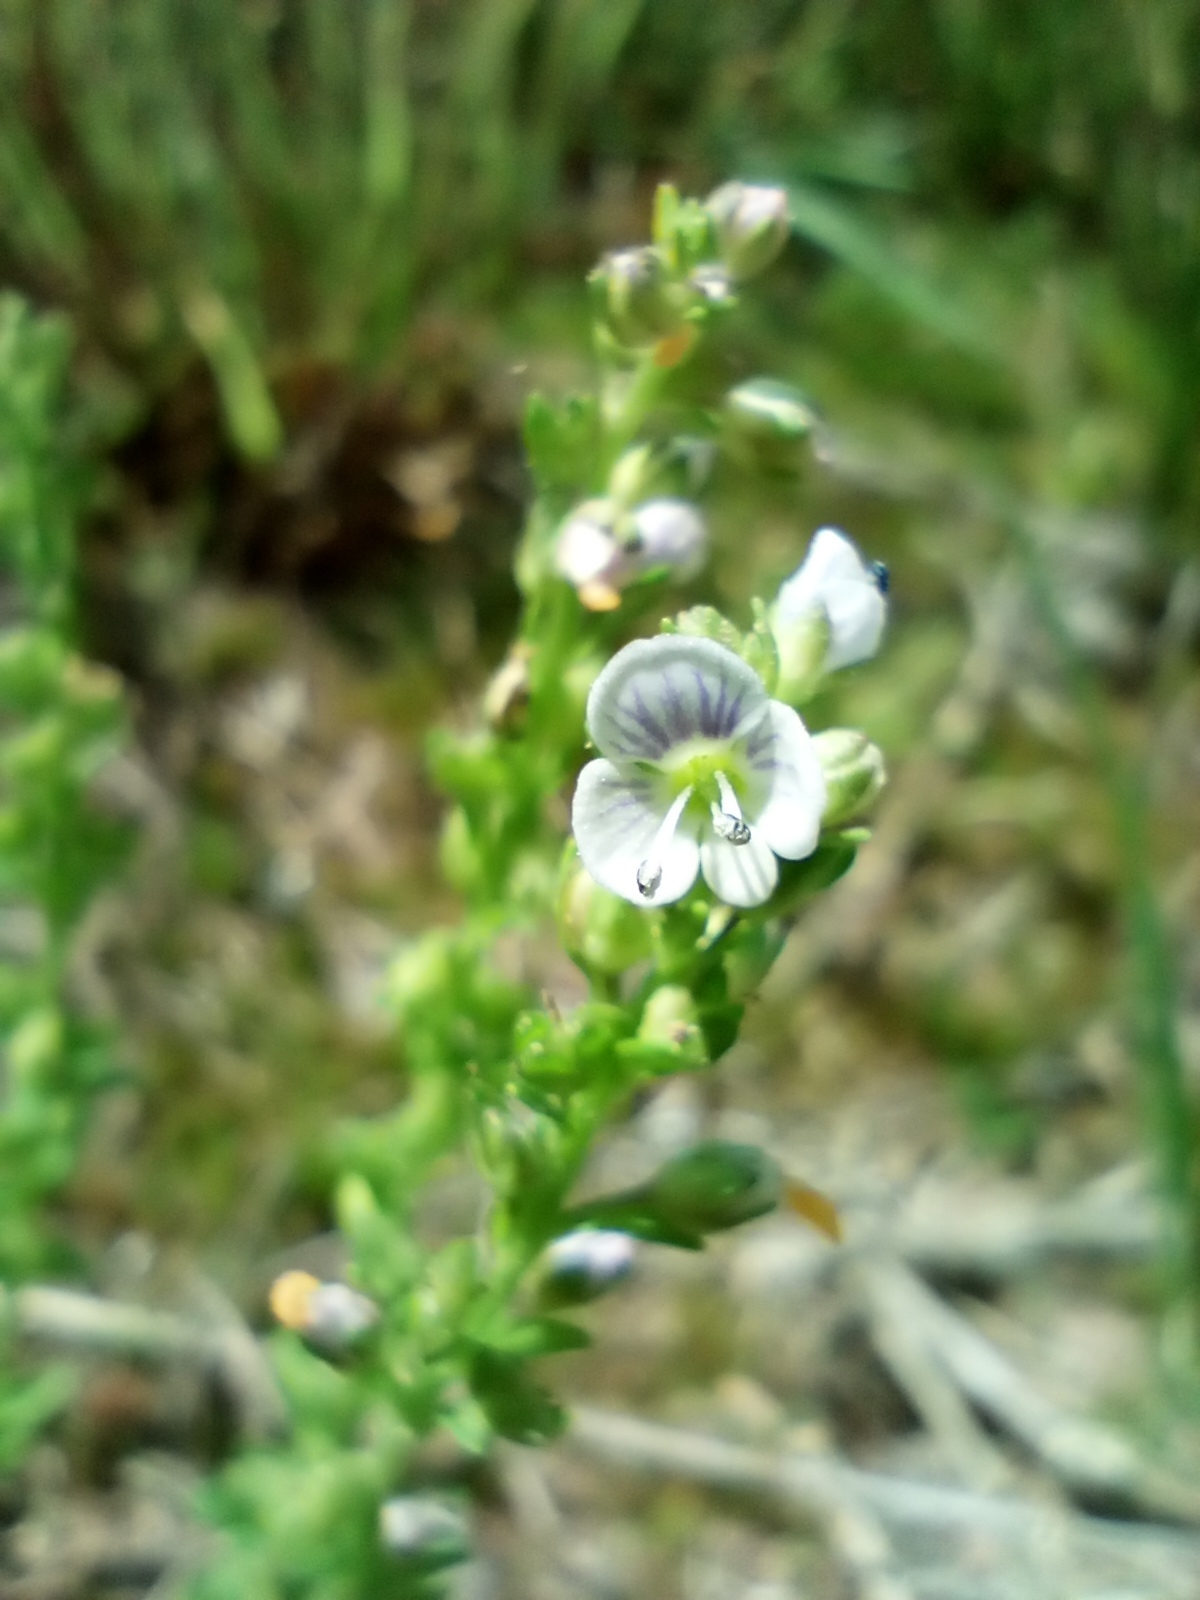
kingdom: Plantae
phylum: Tracheophyta
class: Magnoliopsida
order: Lamiales
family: Plantaginaceae
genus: Veronica
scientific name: Veronica serpyllifolia
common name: Thyme-leaved speedwell
